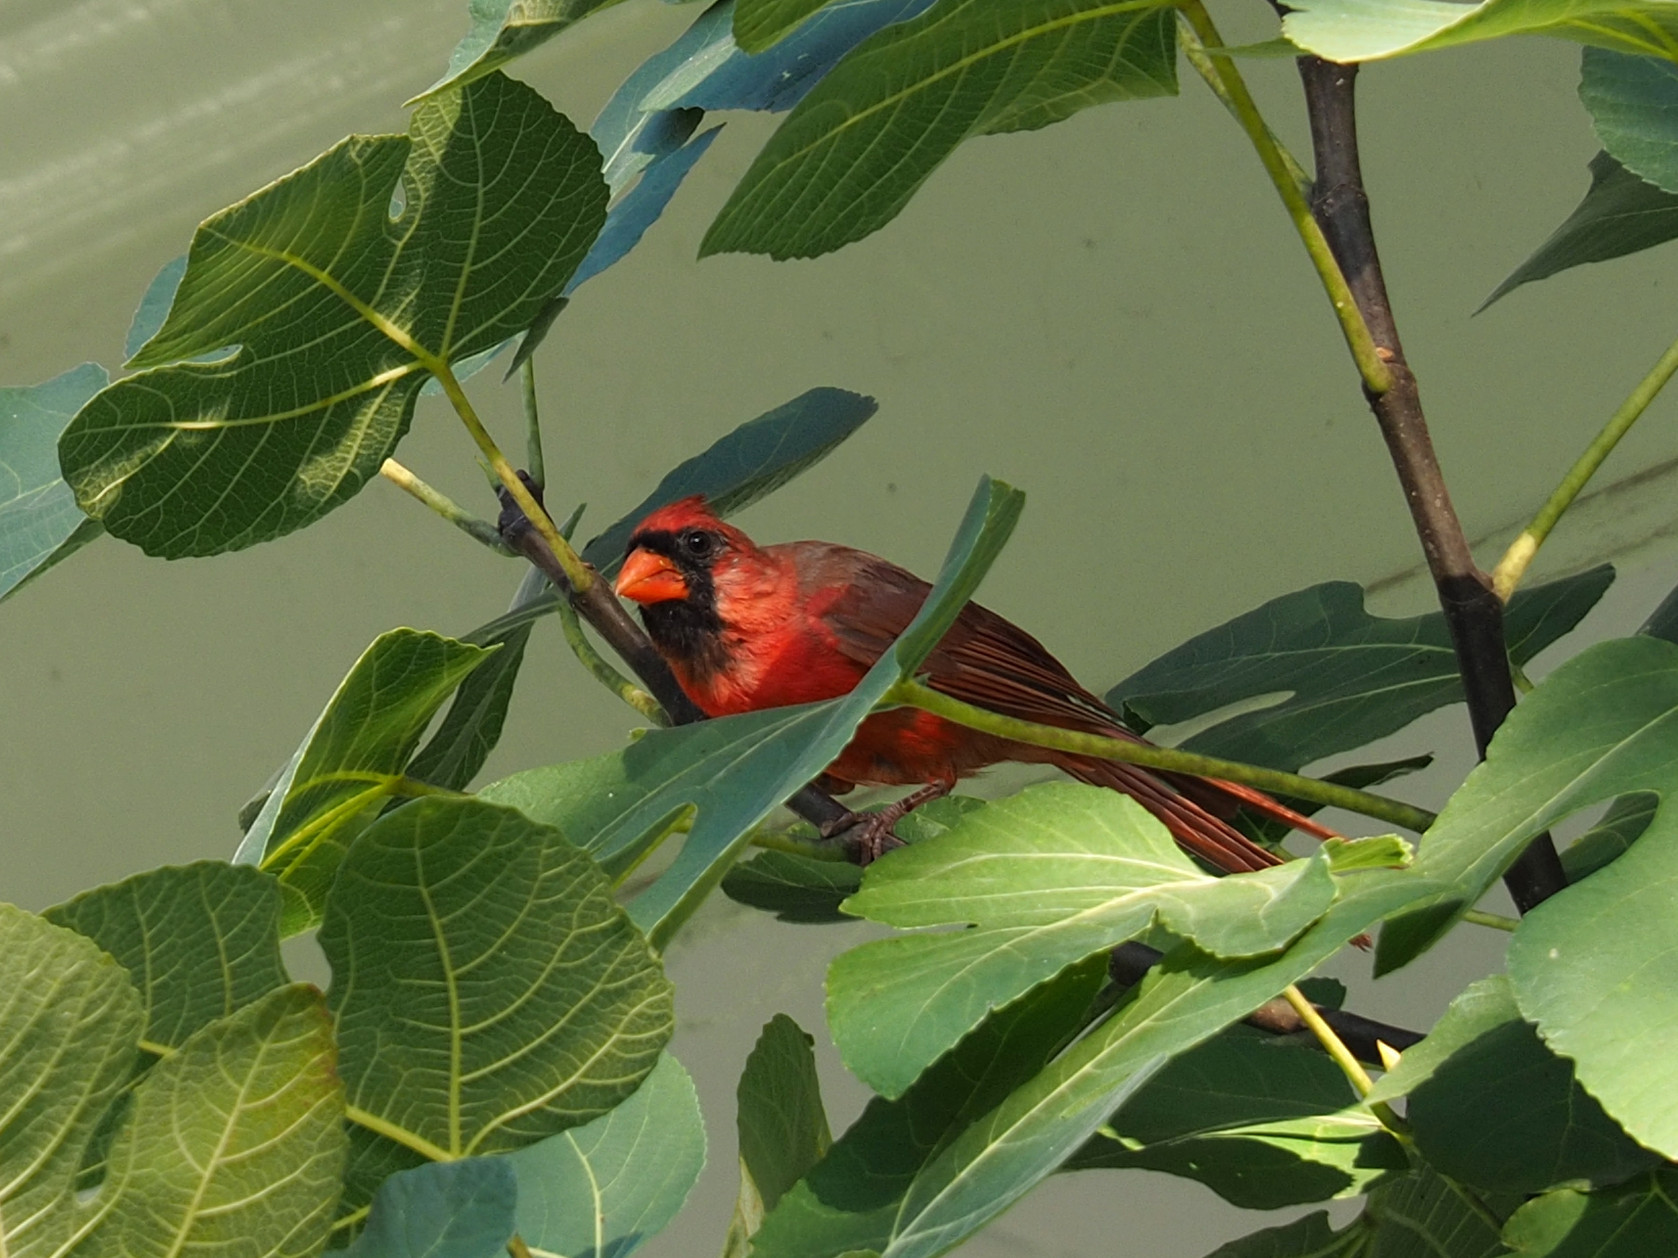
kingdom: Animalia
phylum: Chordata
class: Aves
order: Passeriformes
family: Cardinalidae
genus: Cardinalis
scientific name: Cardinalis cardinalis
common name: Northern cardinal
